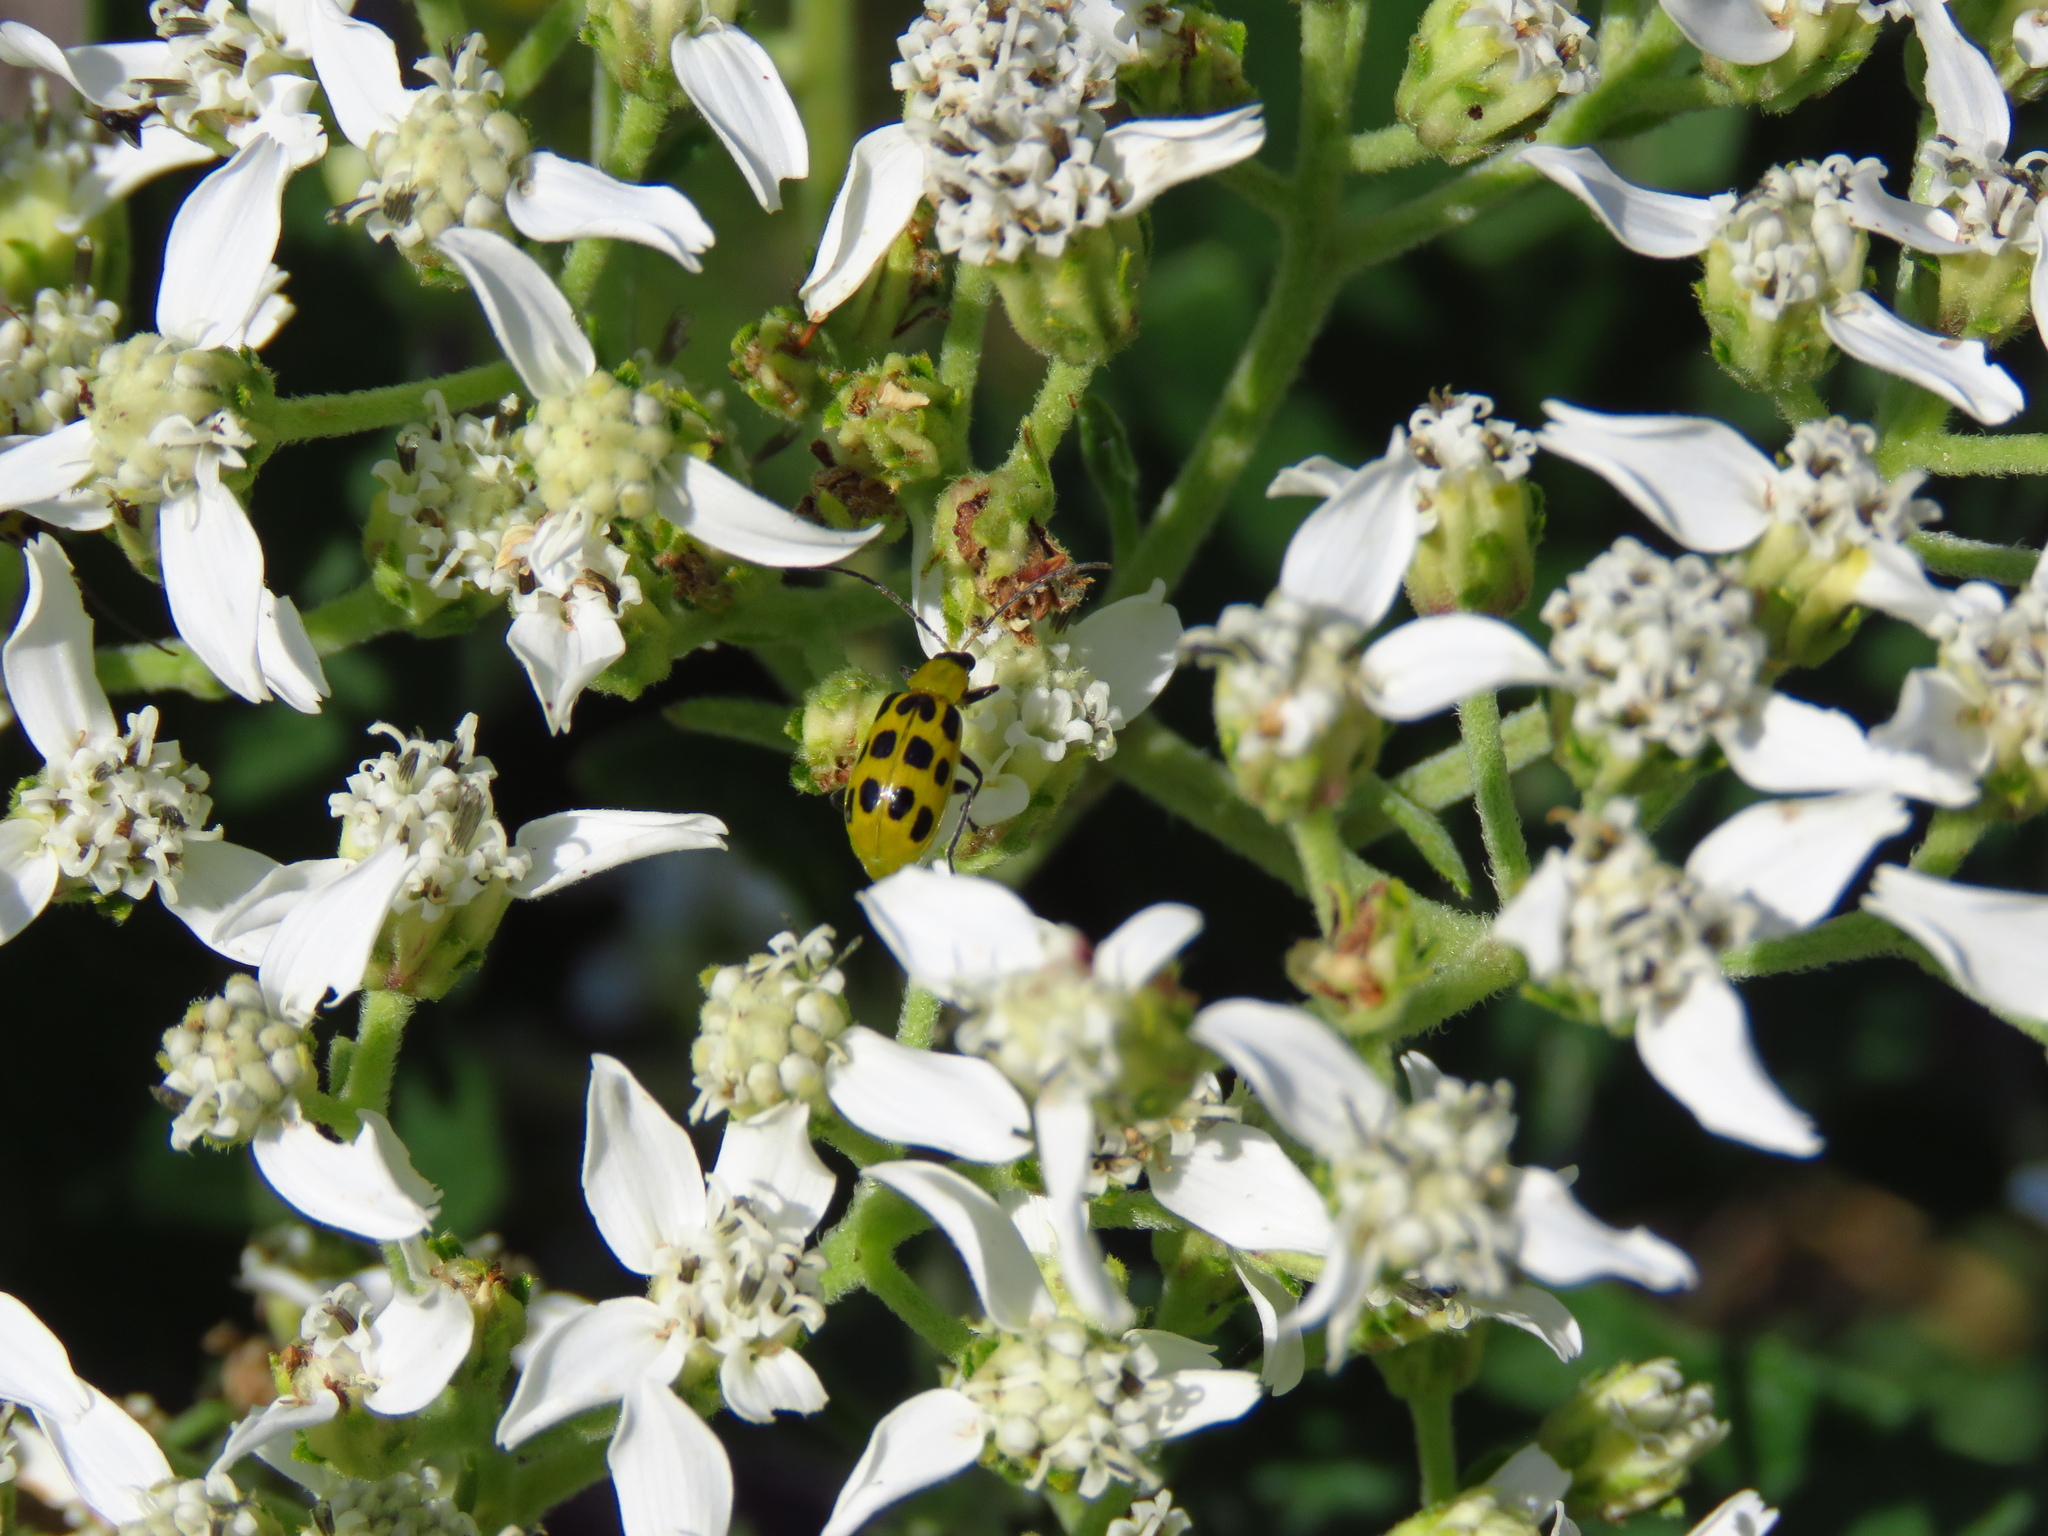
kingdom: Plantae
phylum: Tracheophyta
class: Magnoliopsida
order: Asterales
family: Asteraceae
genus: Verbesina
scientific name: Verbesina virginica
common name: Frostweed
